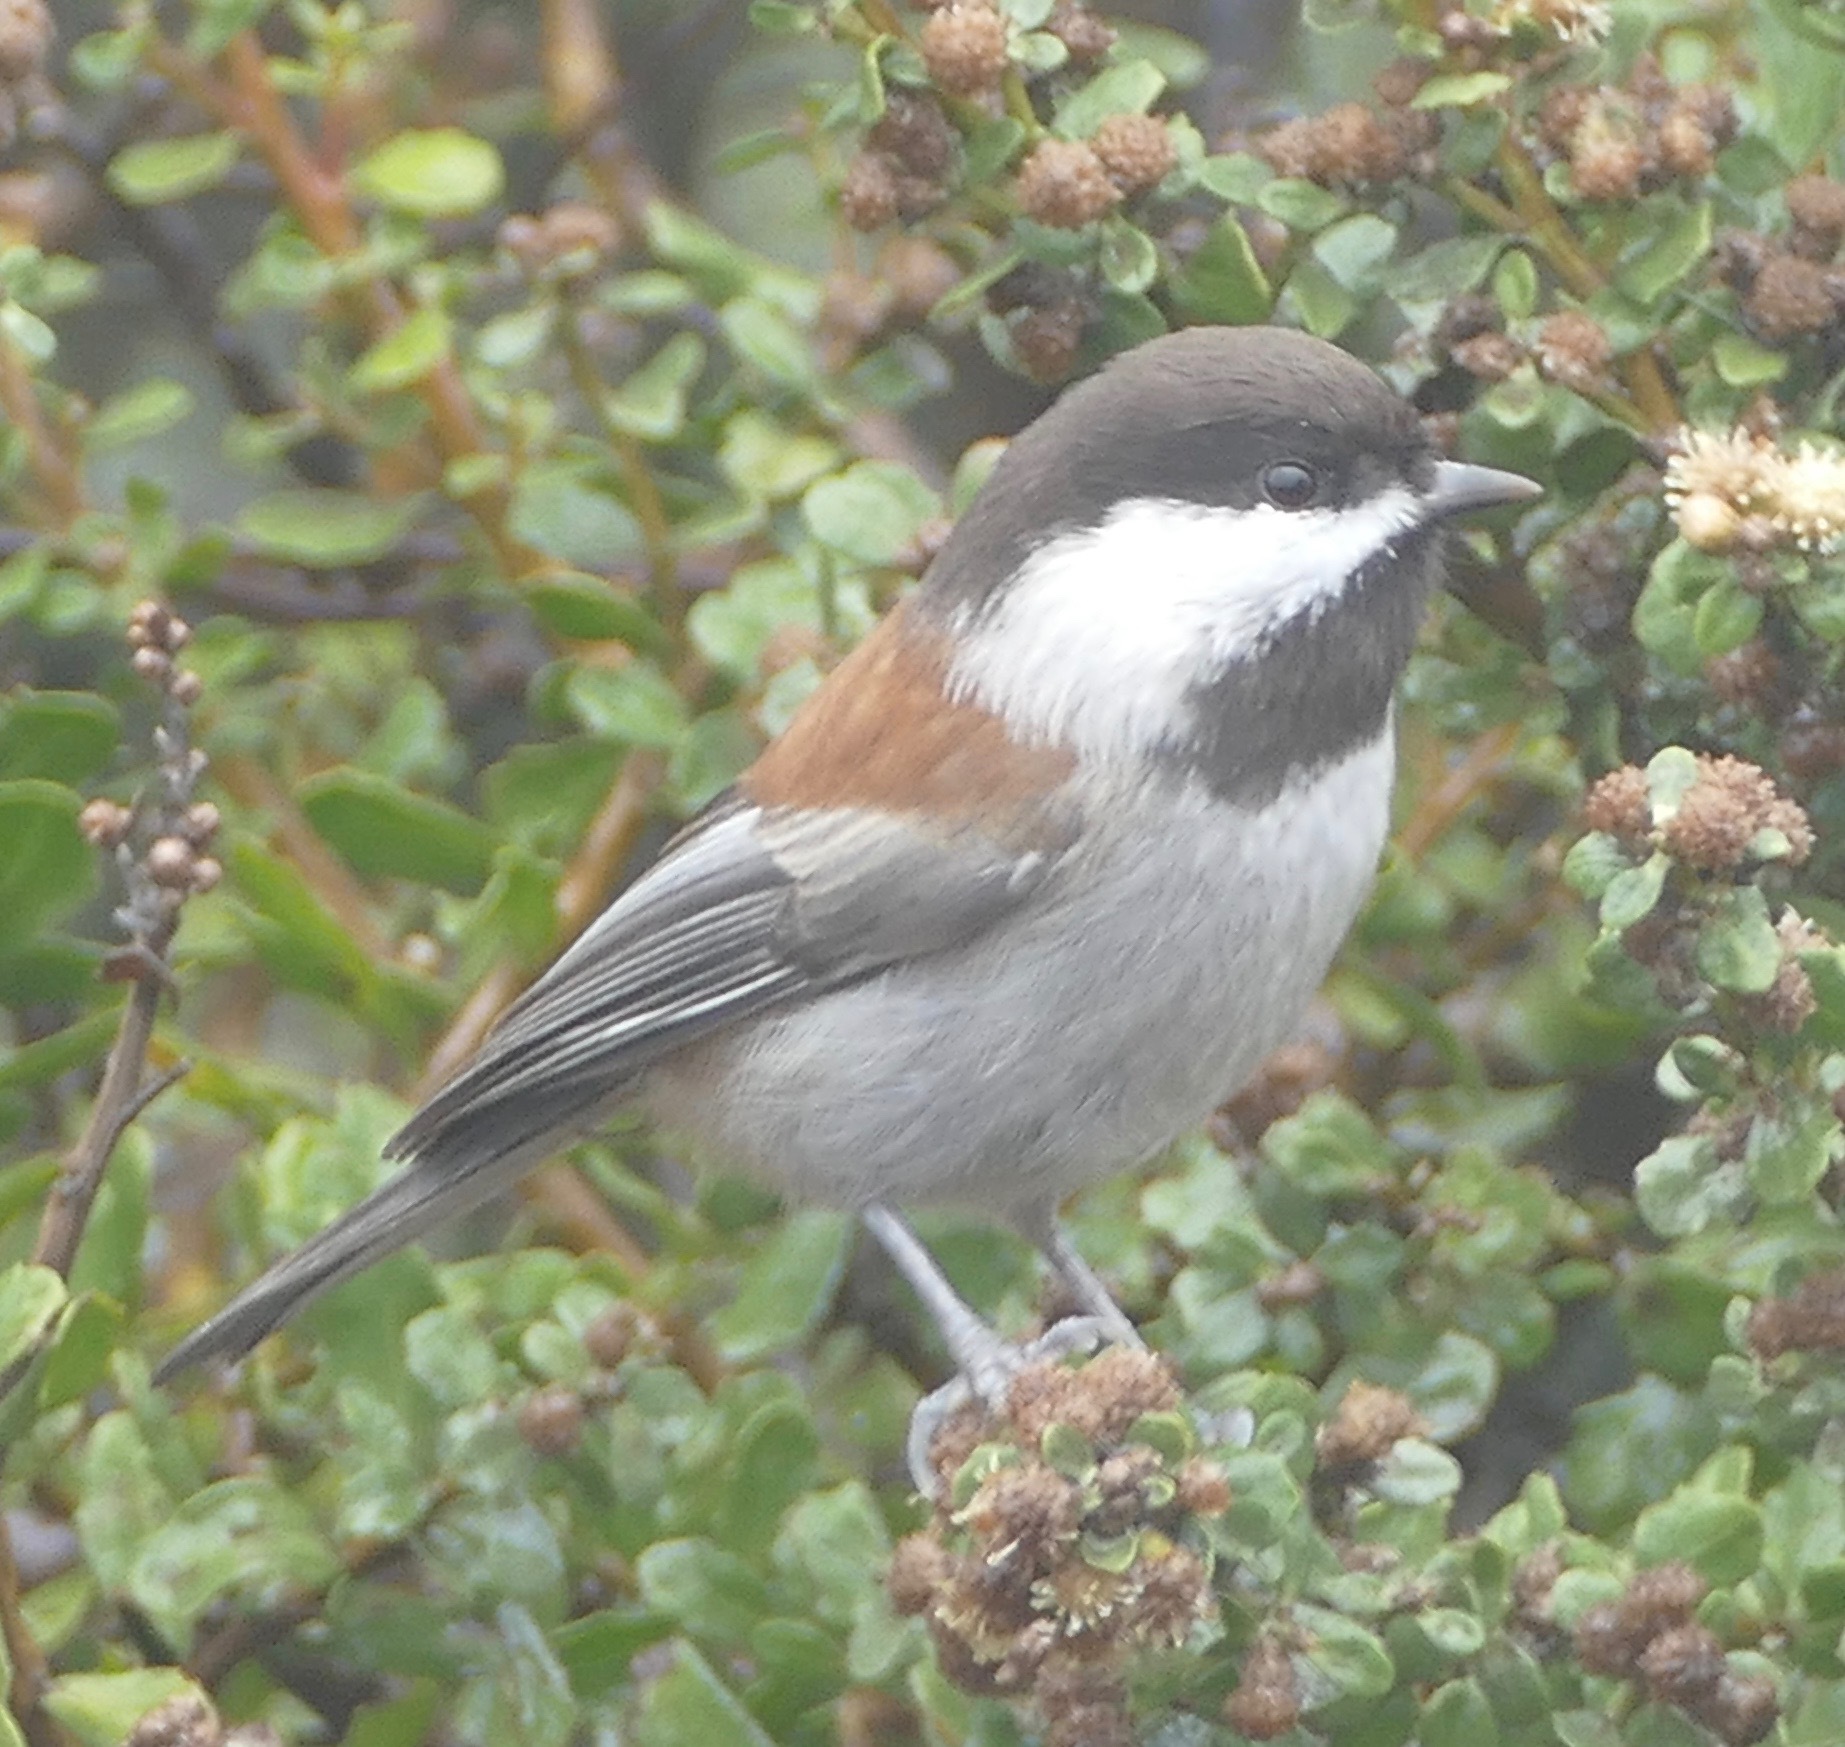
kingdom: Animalia
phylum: Chordata
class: Aves
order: Passeriformes
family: Paridae
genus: Poecile
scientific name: Poecile rufescens
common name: Chestnut-backed chickadee
